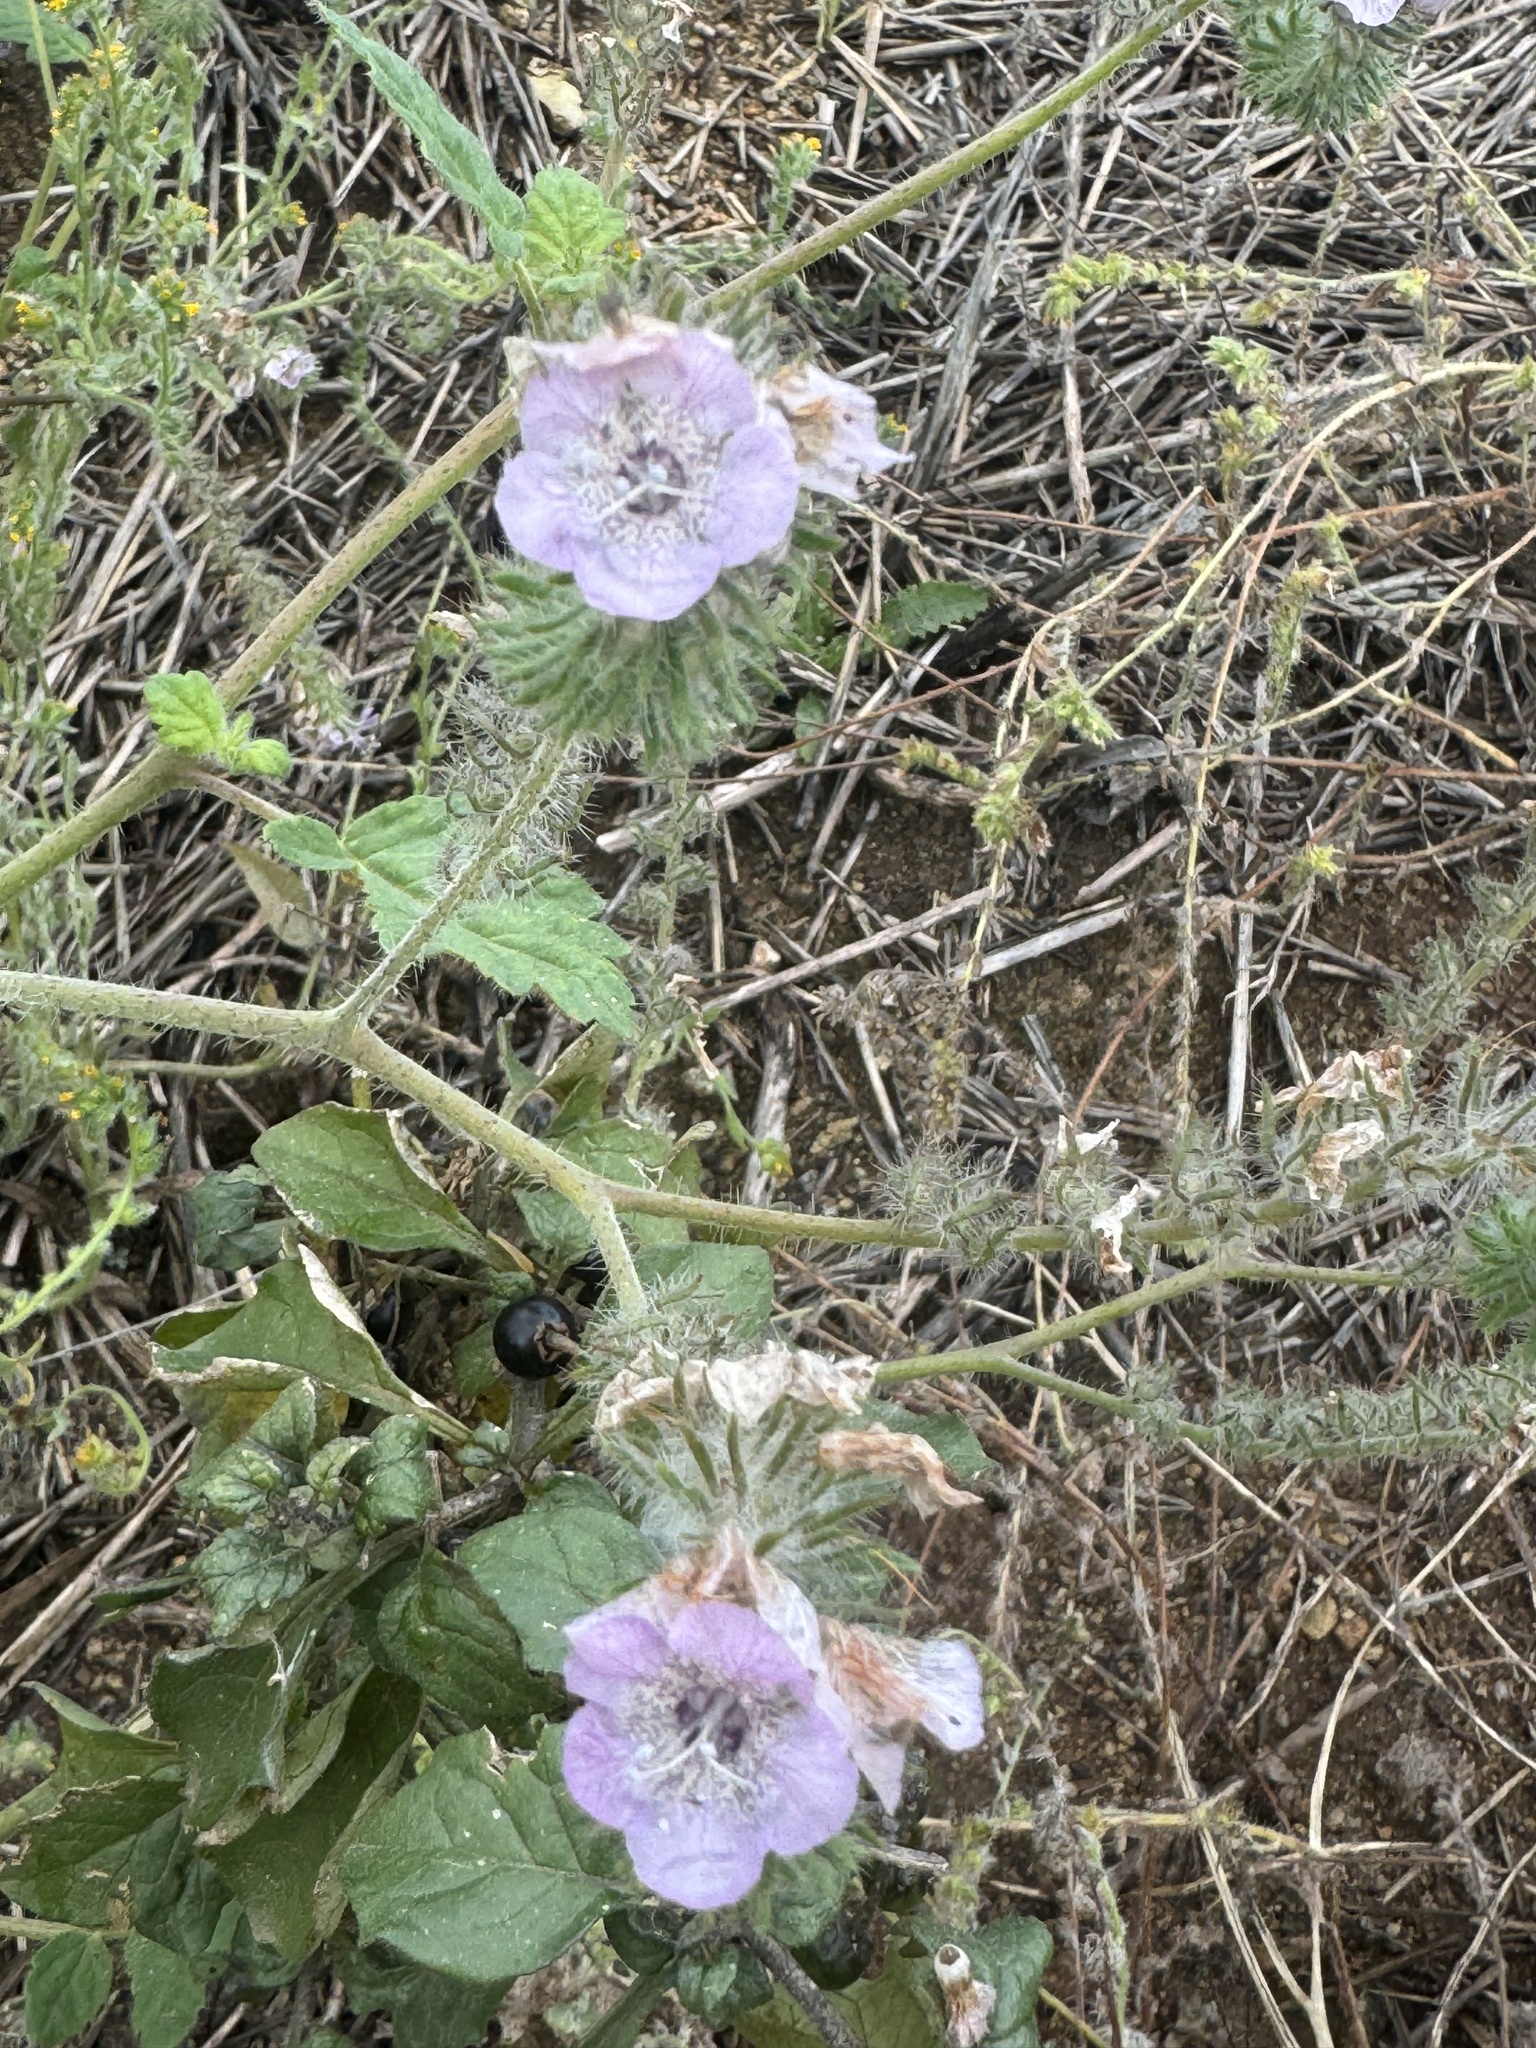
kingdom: Plantae
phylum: Tracheophyta
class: Magnoliopsida
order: Boraginales
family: Hydrophyllaceae
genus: Phacelia
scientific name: Phacelia cicutaria
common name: Caterpillar phacelia
